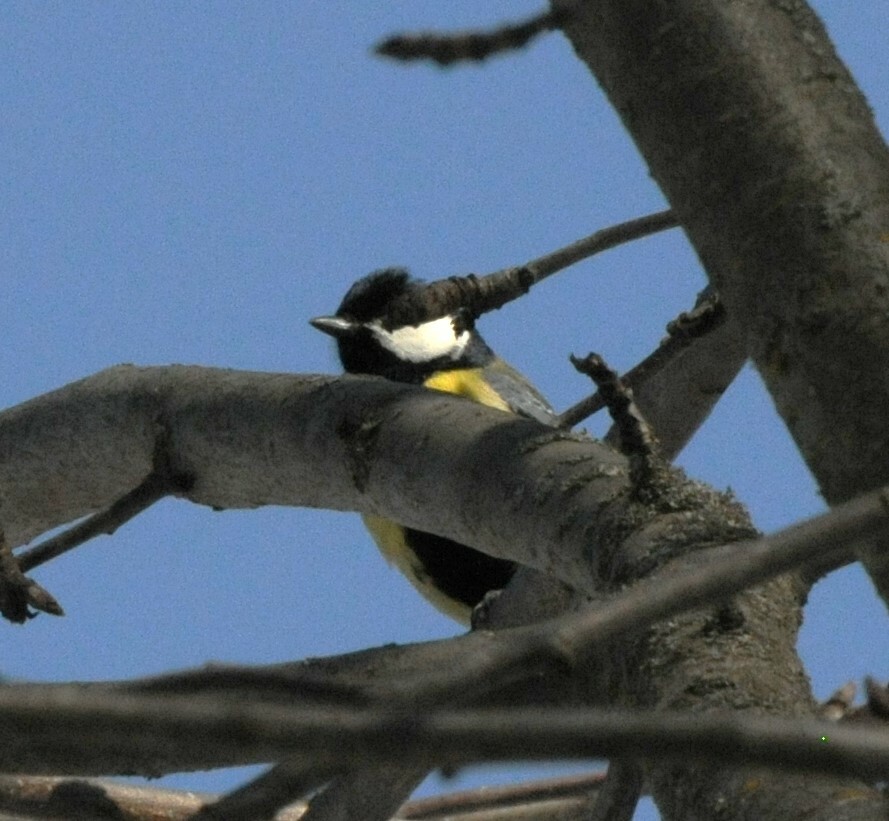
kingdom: Animalia
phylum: Chordata
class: Aves
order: Passeriformes
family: Paridae
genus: Parus
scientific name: Parus major
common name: Great tit
